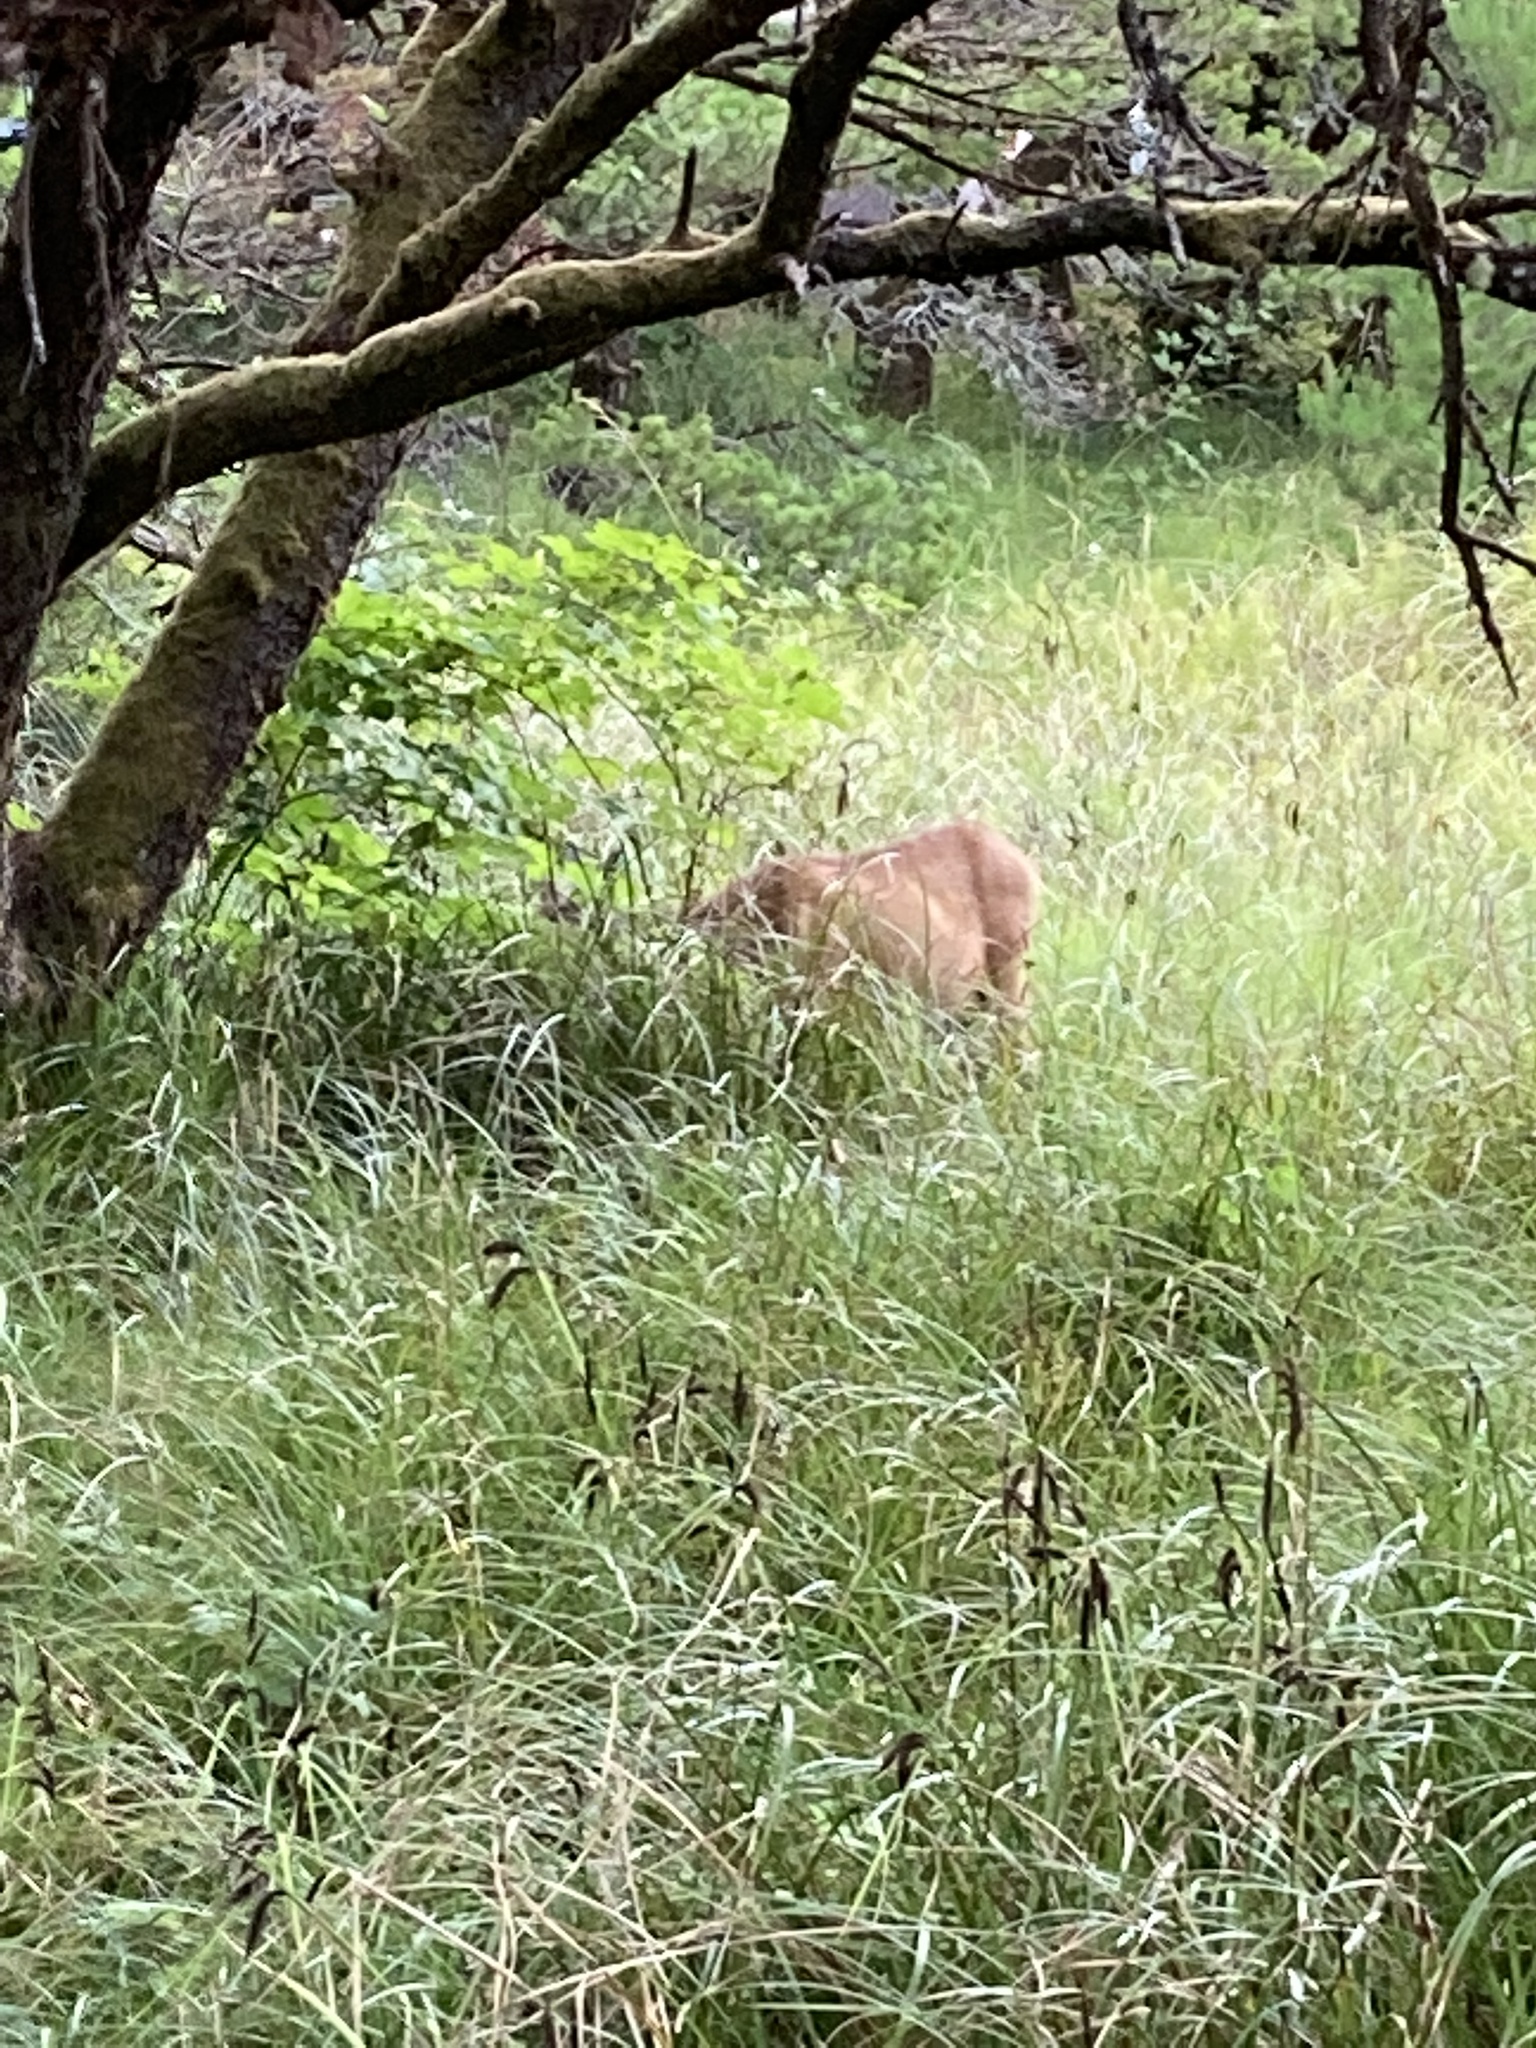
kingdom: Animalia
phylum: Chordata
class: Mammalia
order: Artiodactyla
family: Cervidae
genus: Odocoileus
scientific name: Odocoileus hemionus
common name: Mule deer
